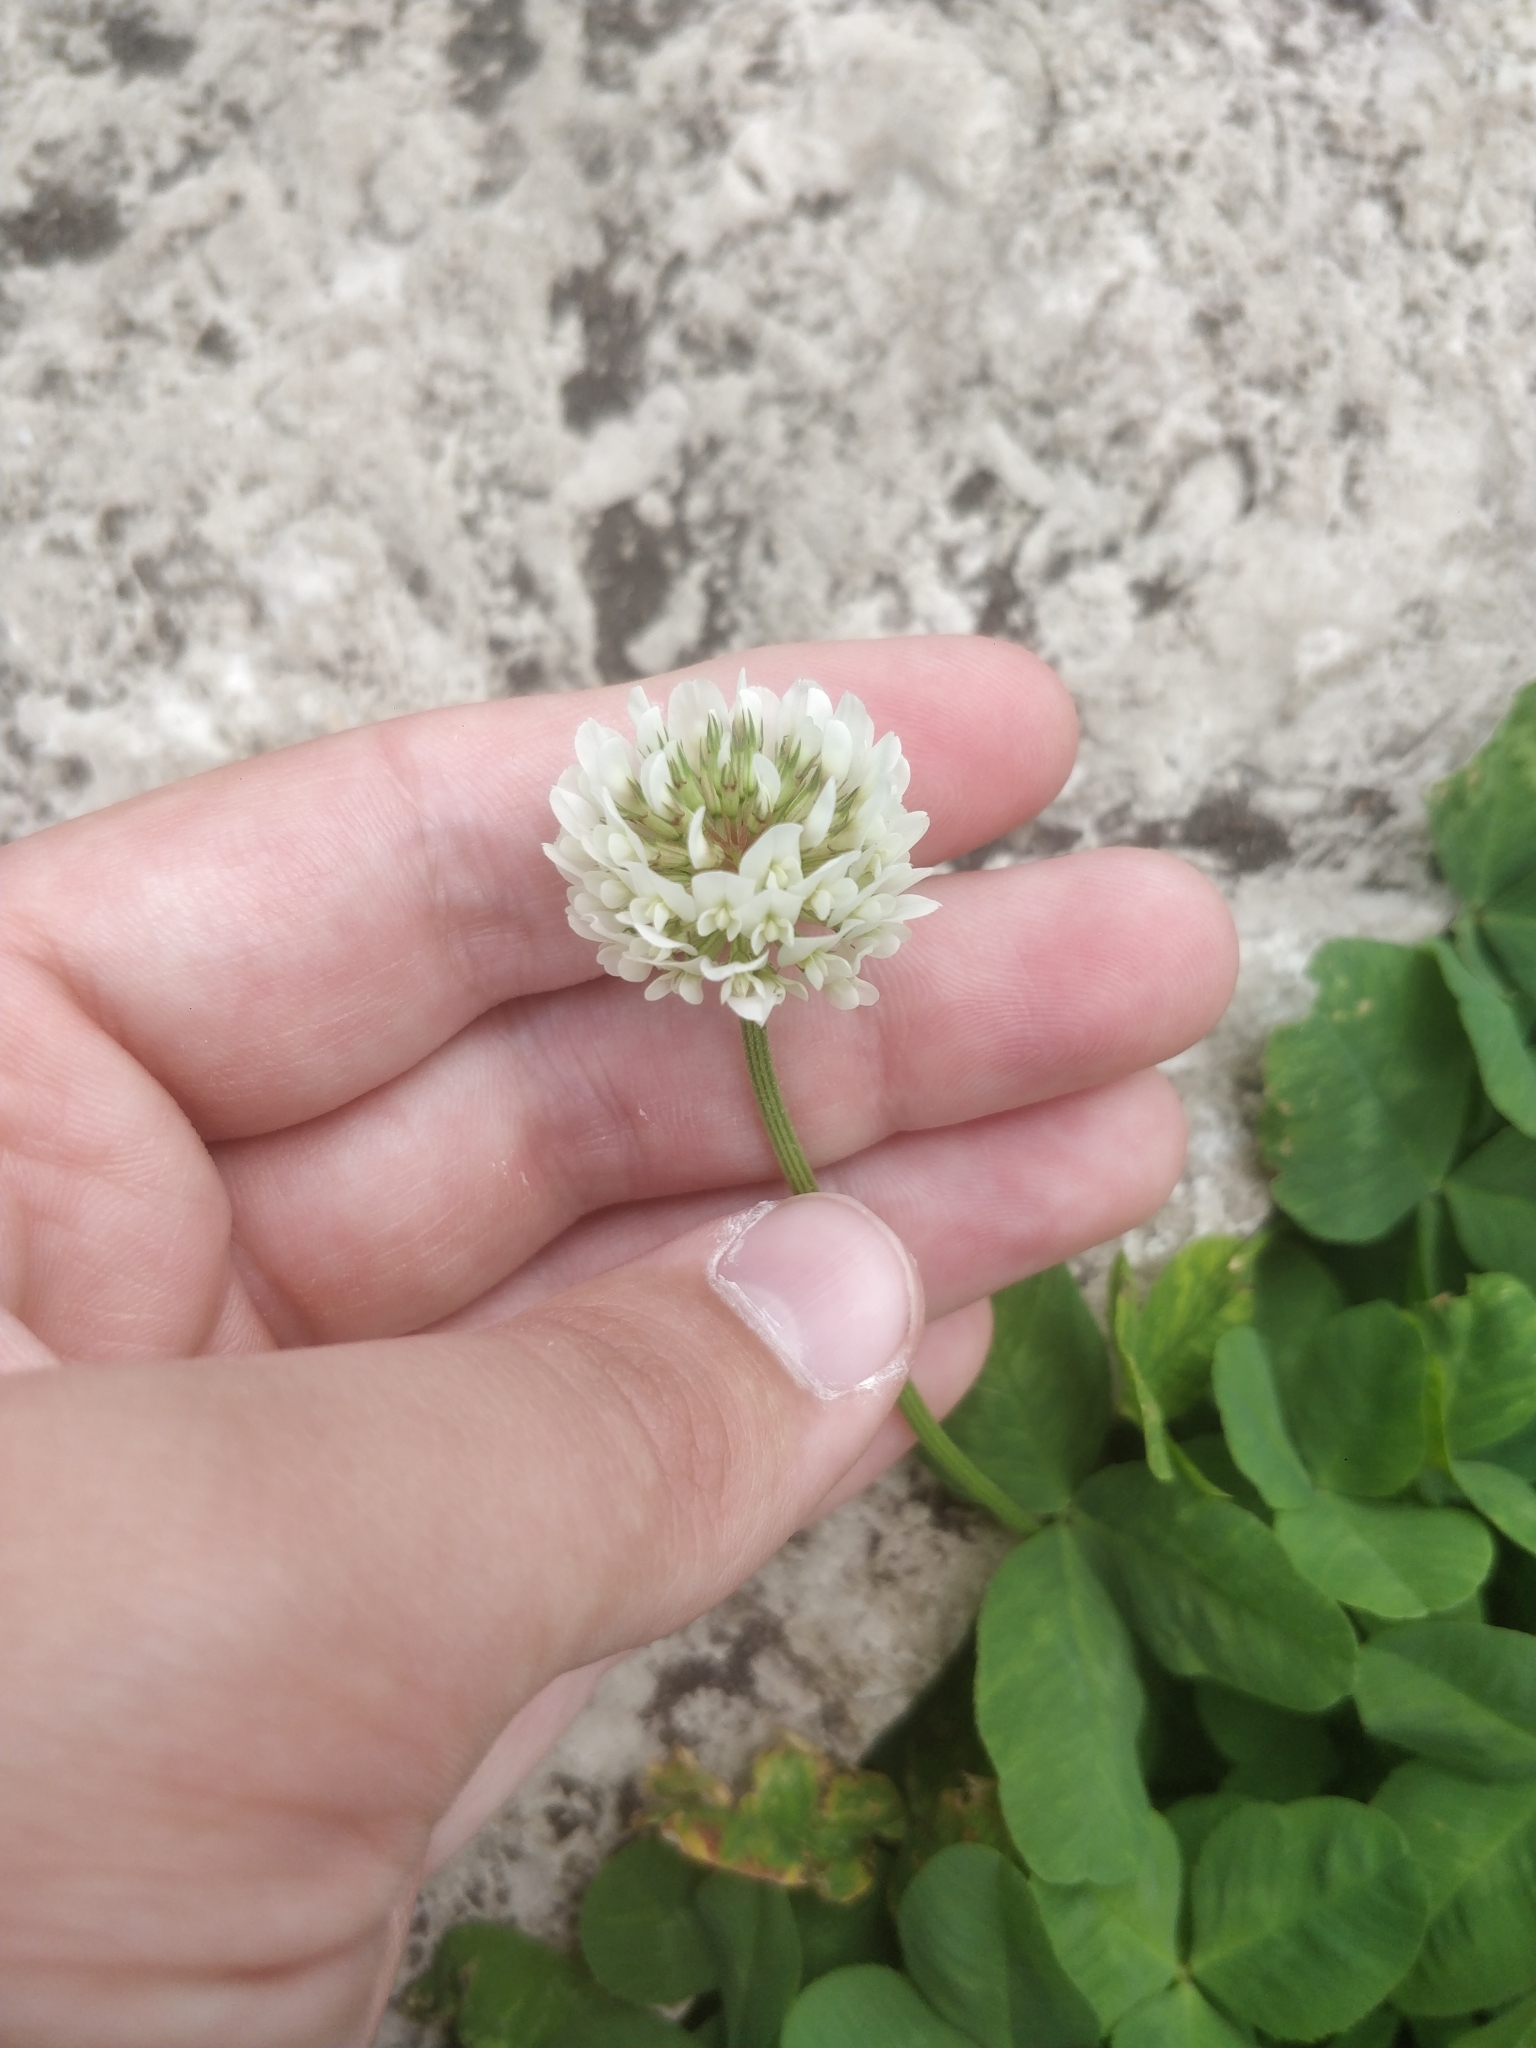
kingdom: Plantae
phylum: Tracheophyta
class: Magnoliopsida
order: Fabales
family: Fabaceae
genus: Trifolium
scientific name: Trifolium repens
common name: White clover
